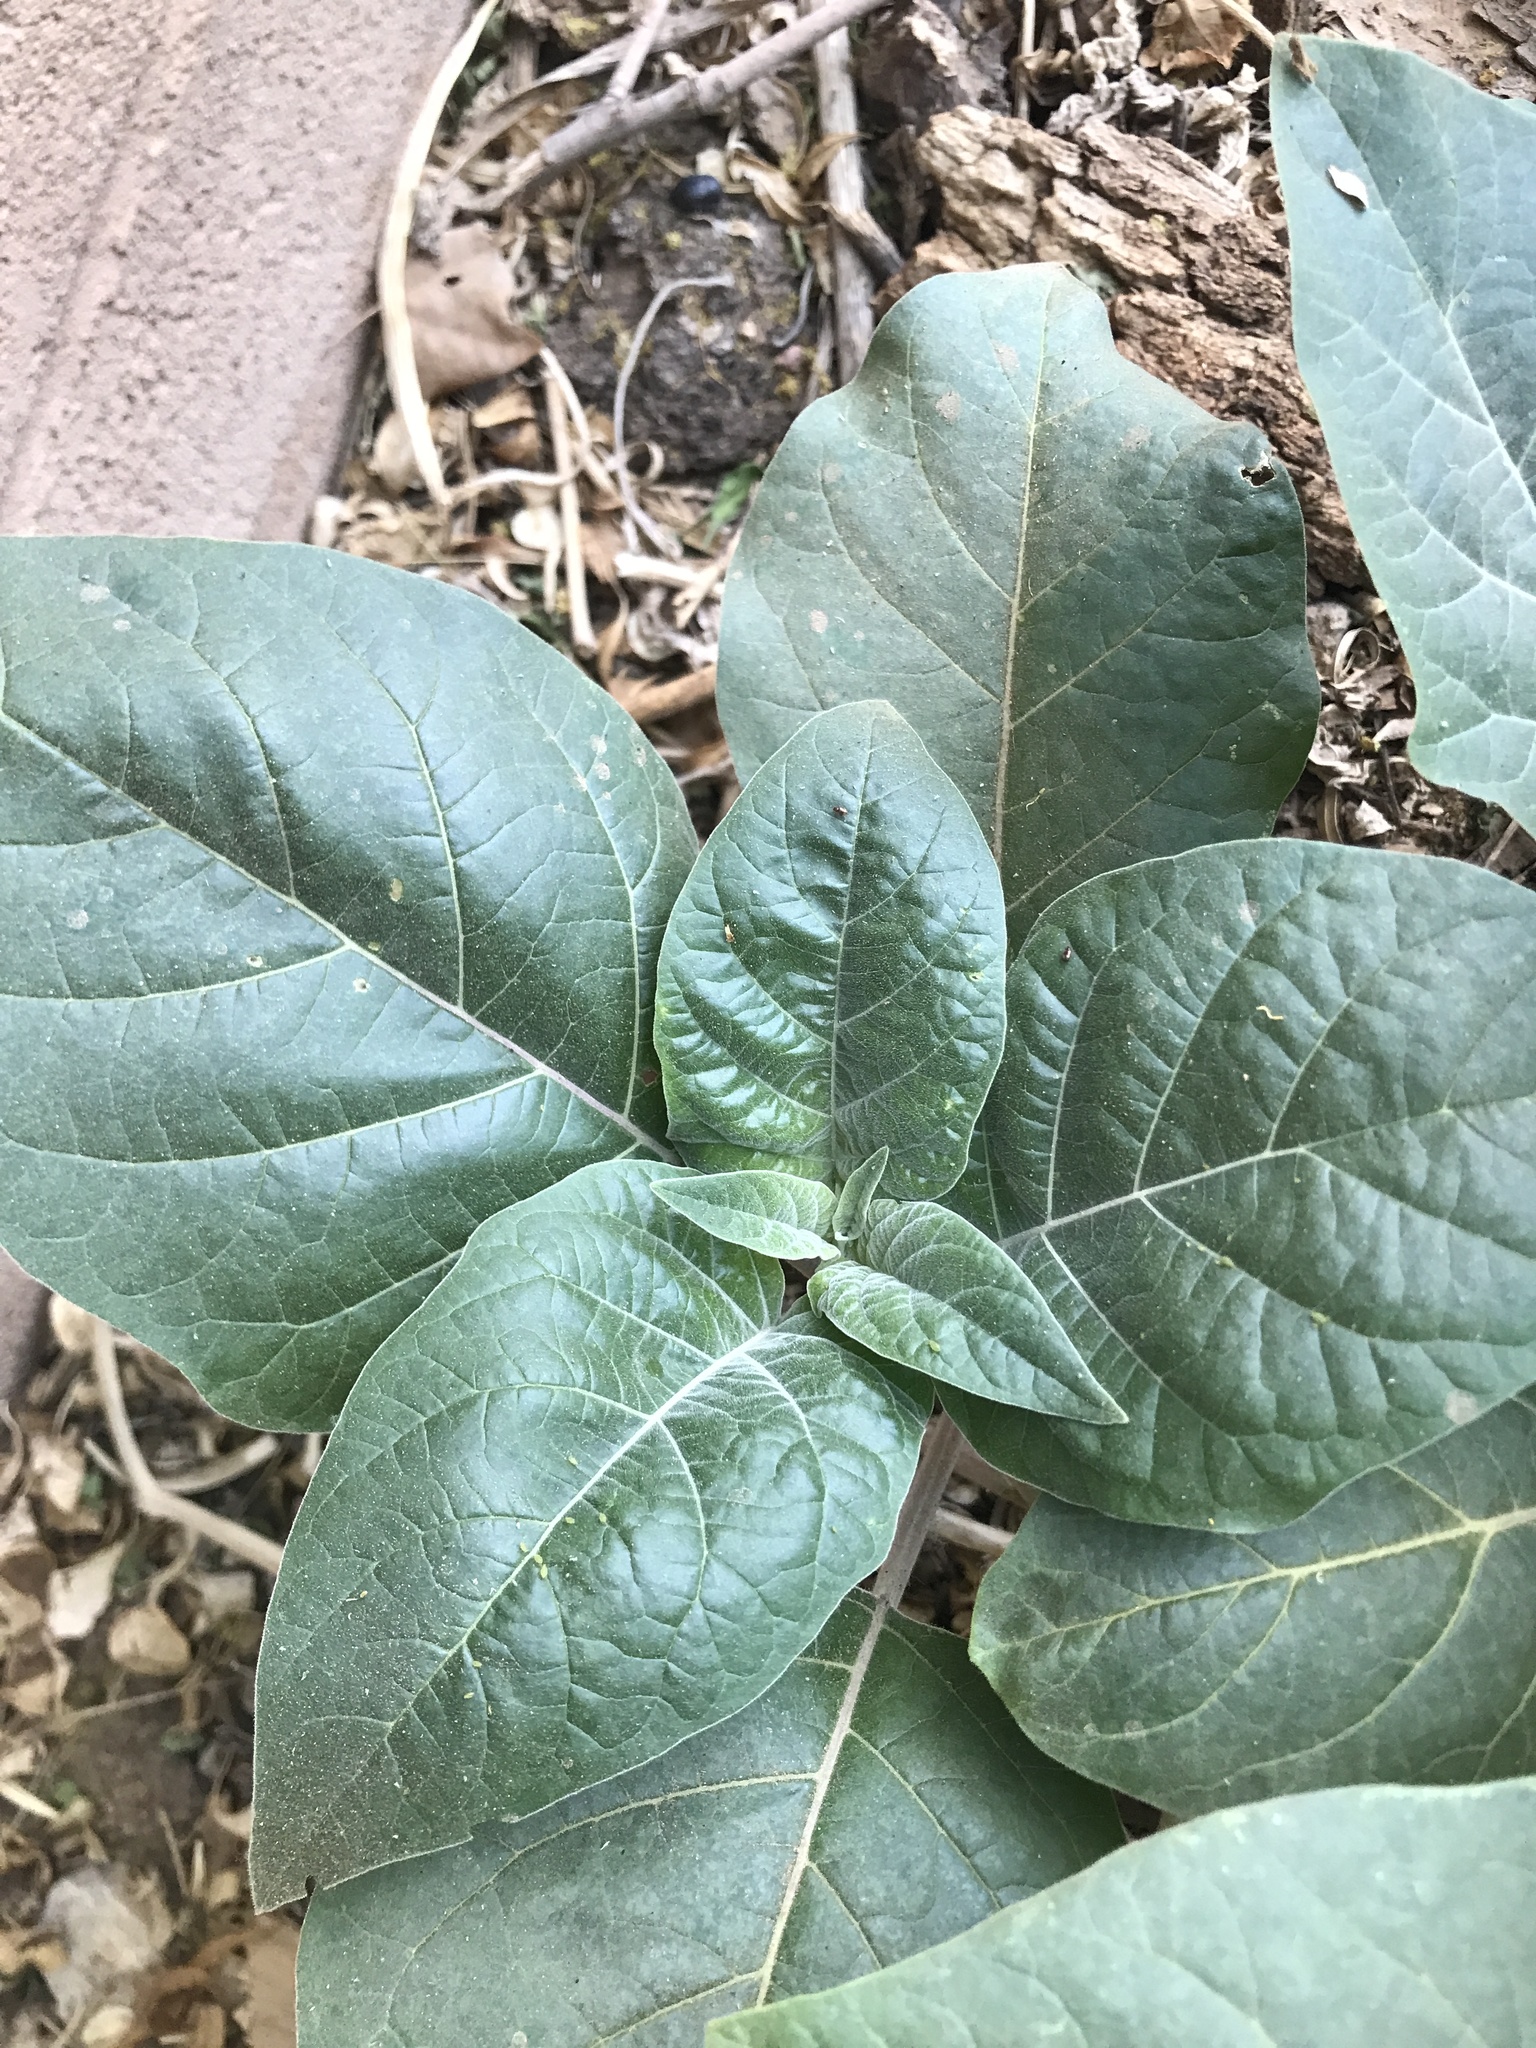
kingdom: Plantae
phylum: Tracheophyta
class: Magnoliopsida
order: Solanales
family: Solanaceae
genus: Datura
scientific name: Datura wrightii
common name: Sacred thorn-apple
